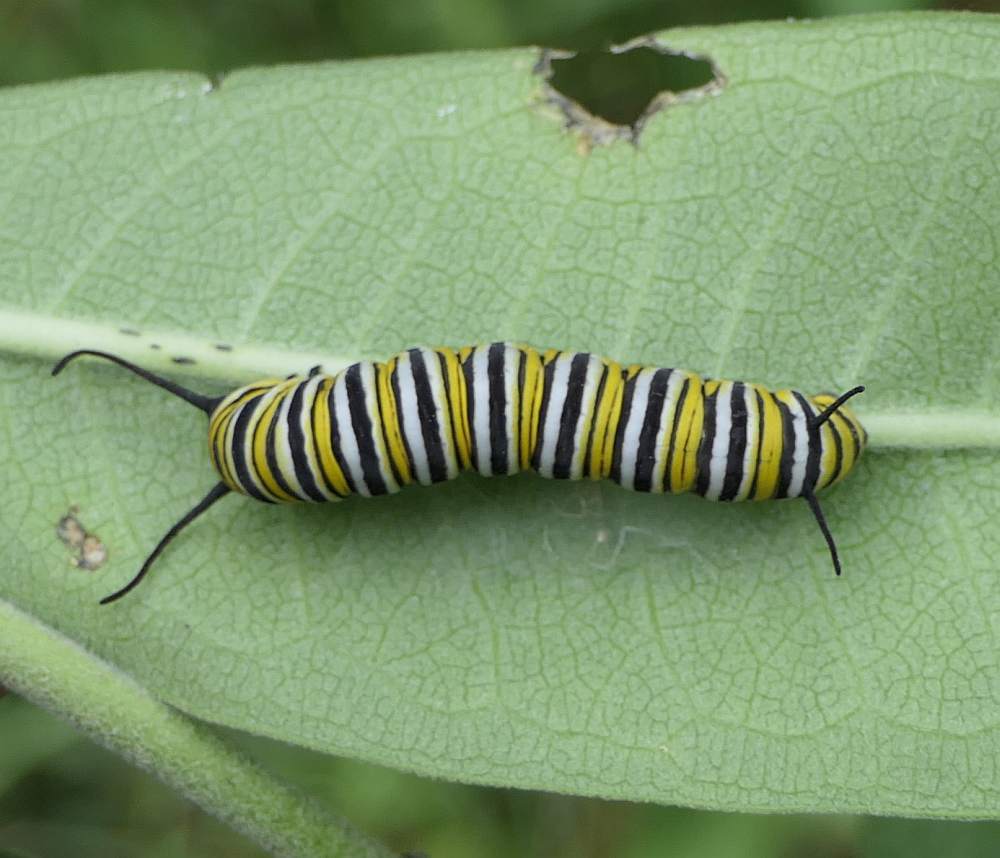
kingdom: Animalia
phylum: Arthropoda
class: Insecta
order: Lepidoptera
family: Nymphalidae
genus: Danaus
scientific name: Danaus plexippus
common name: Monarch
